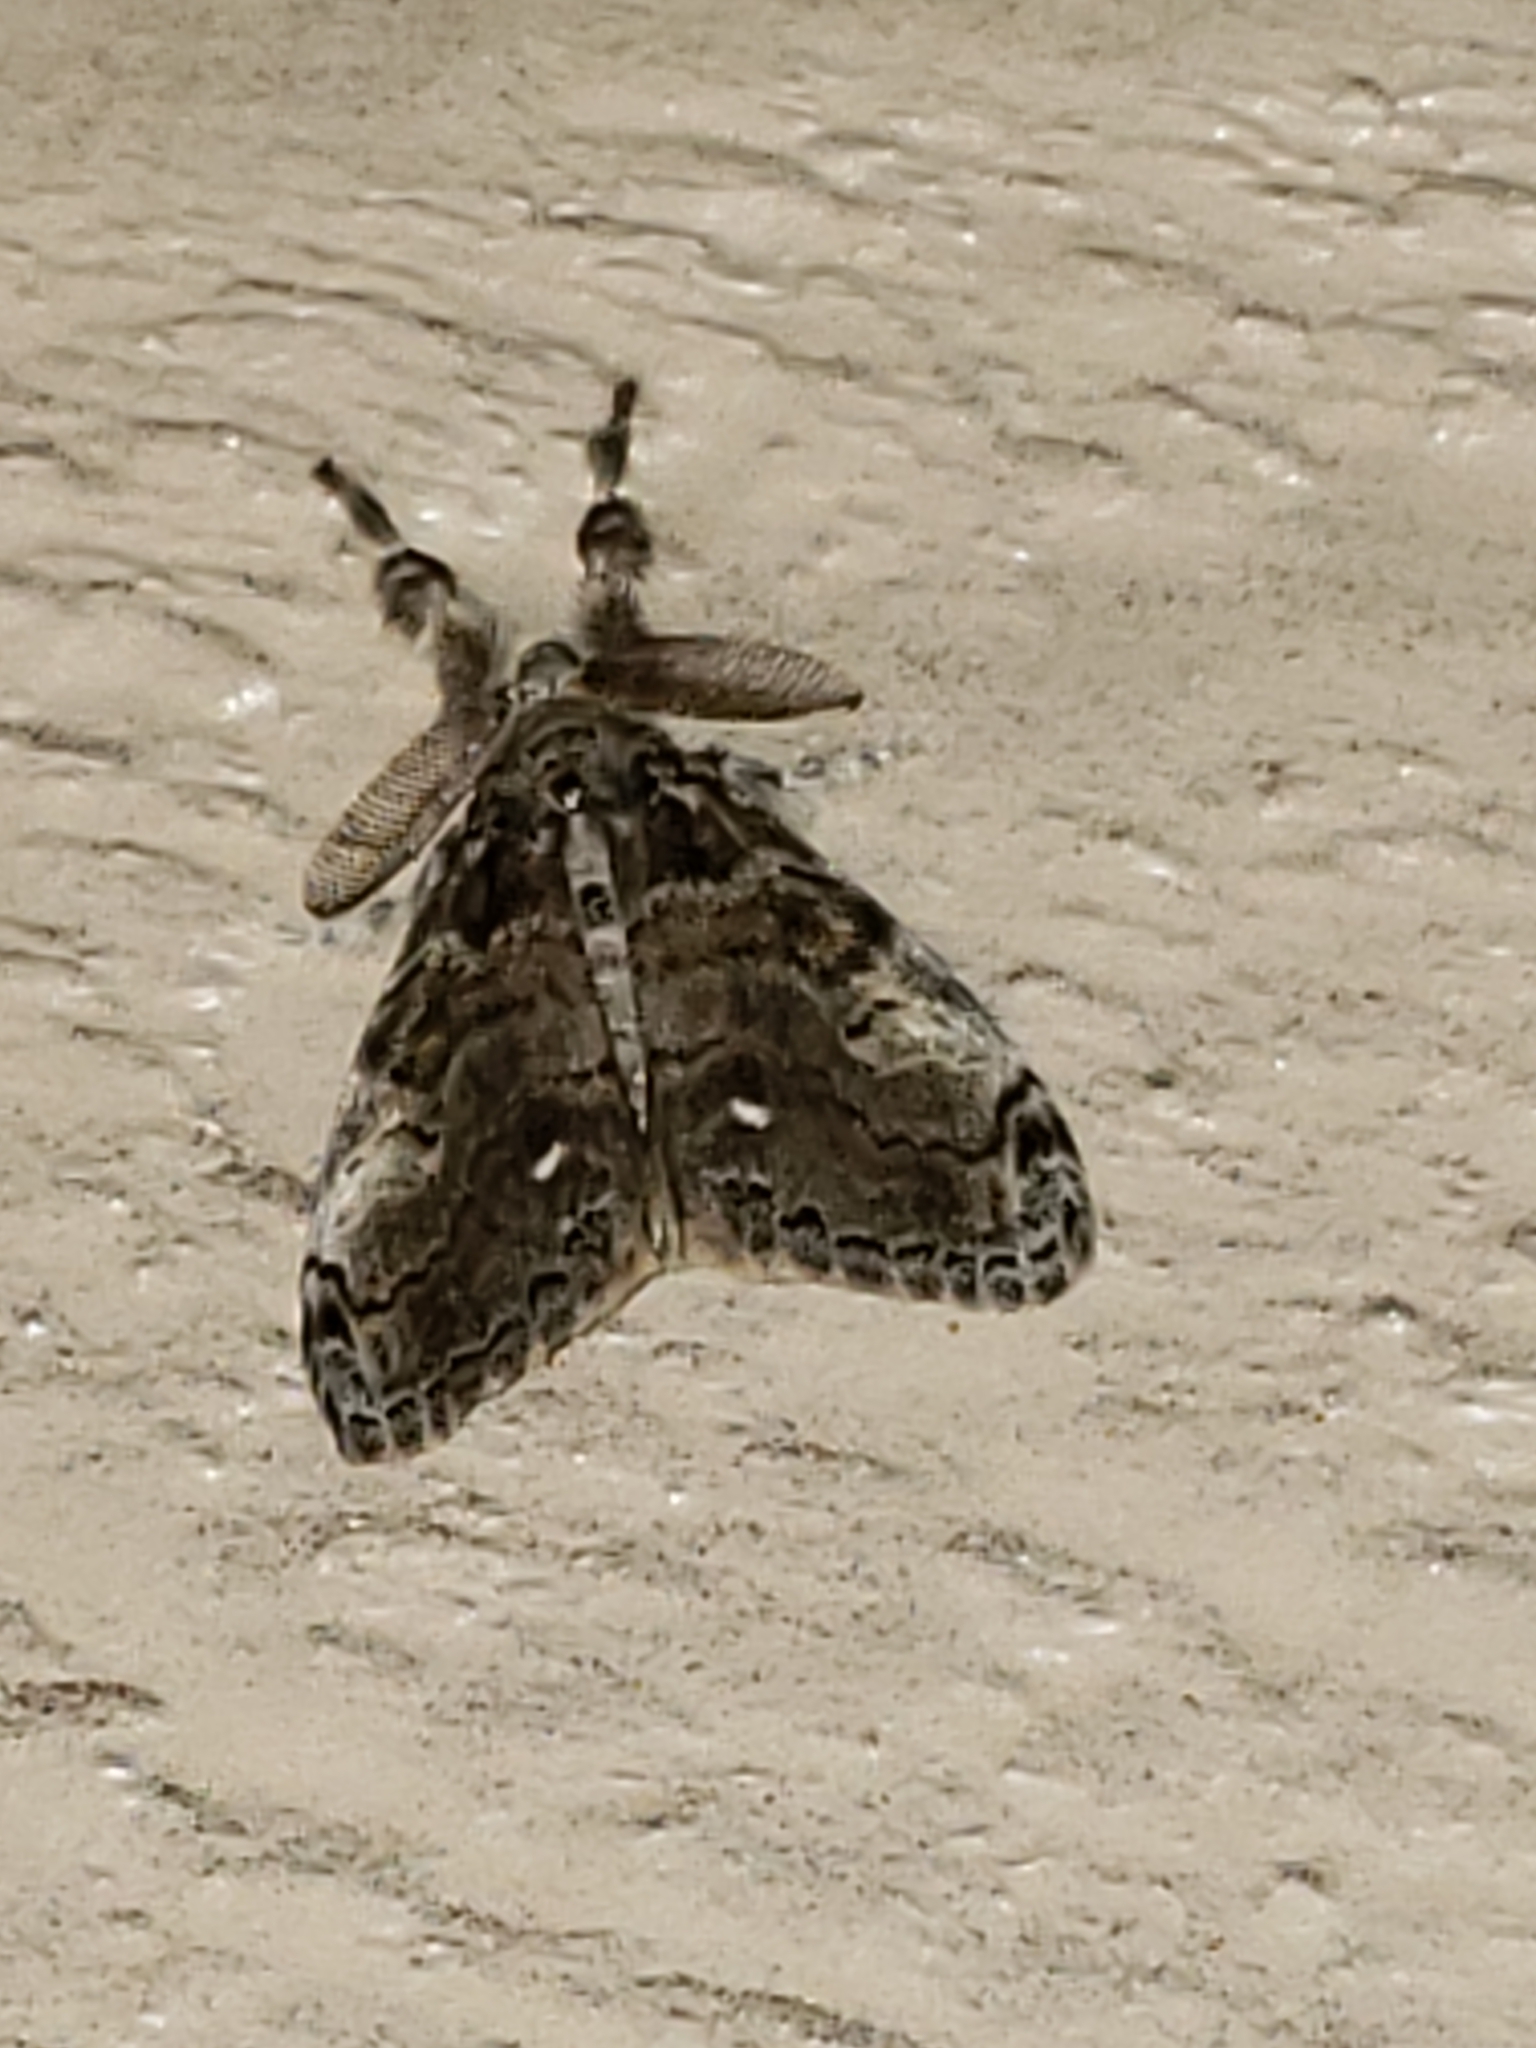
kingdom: Animalia
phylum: Arthropoda
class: Insecta
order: Lepidoptera
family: Erebidae
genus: Orgyia
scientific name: Orgyia leucostigma
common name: White-marked tussock moth
